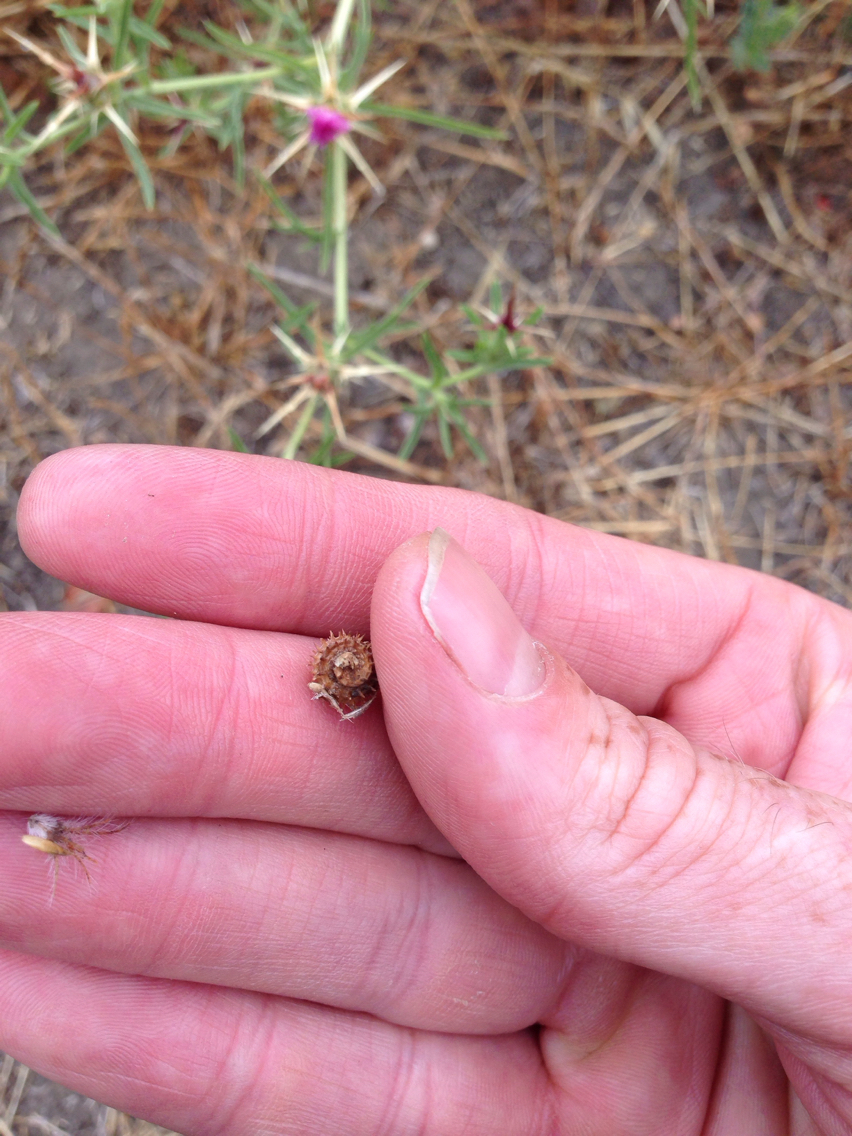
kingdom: Plantae
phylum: Tracheophyta
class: Magnoliopsida
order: Fabales
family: Fabaceae
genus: Medicago
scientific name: Medicago polymorpha
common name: Burclover
